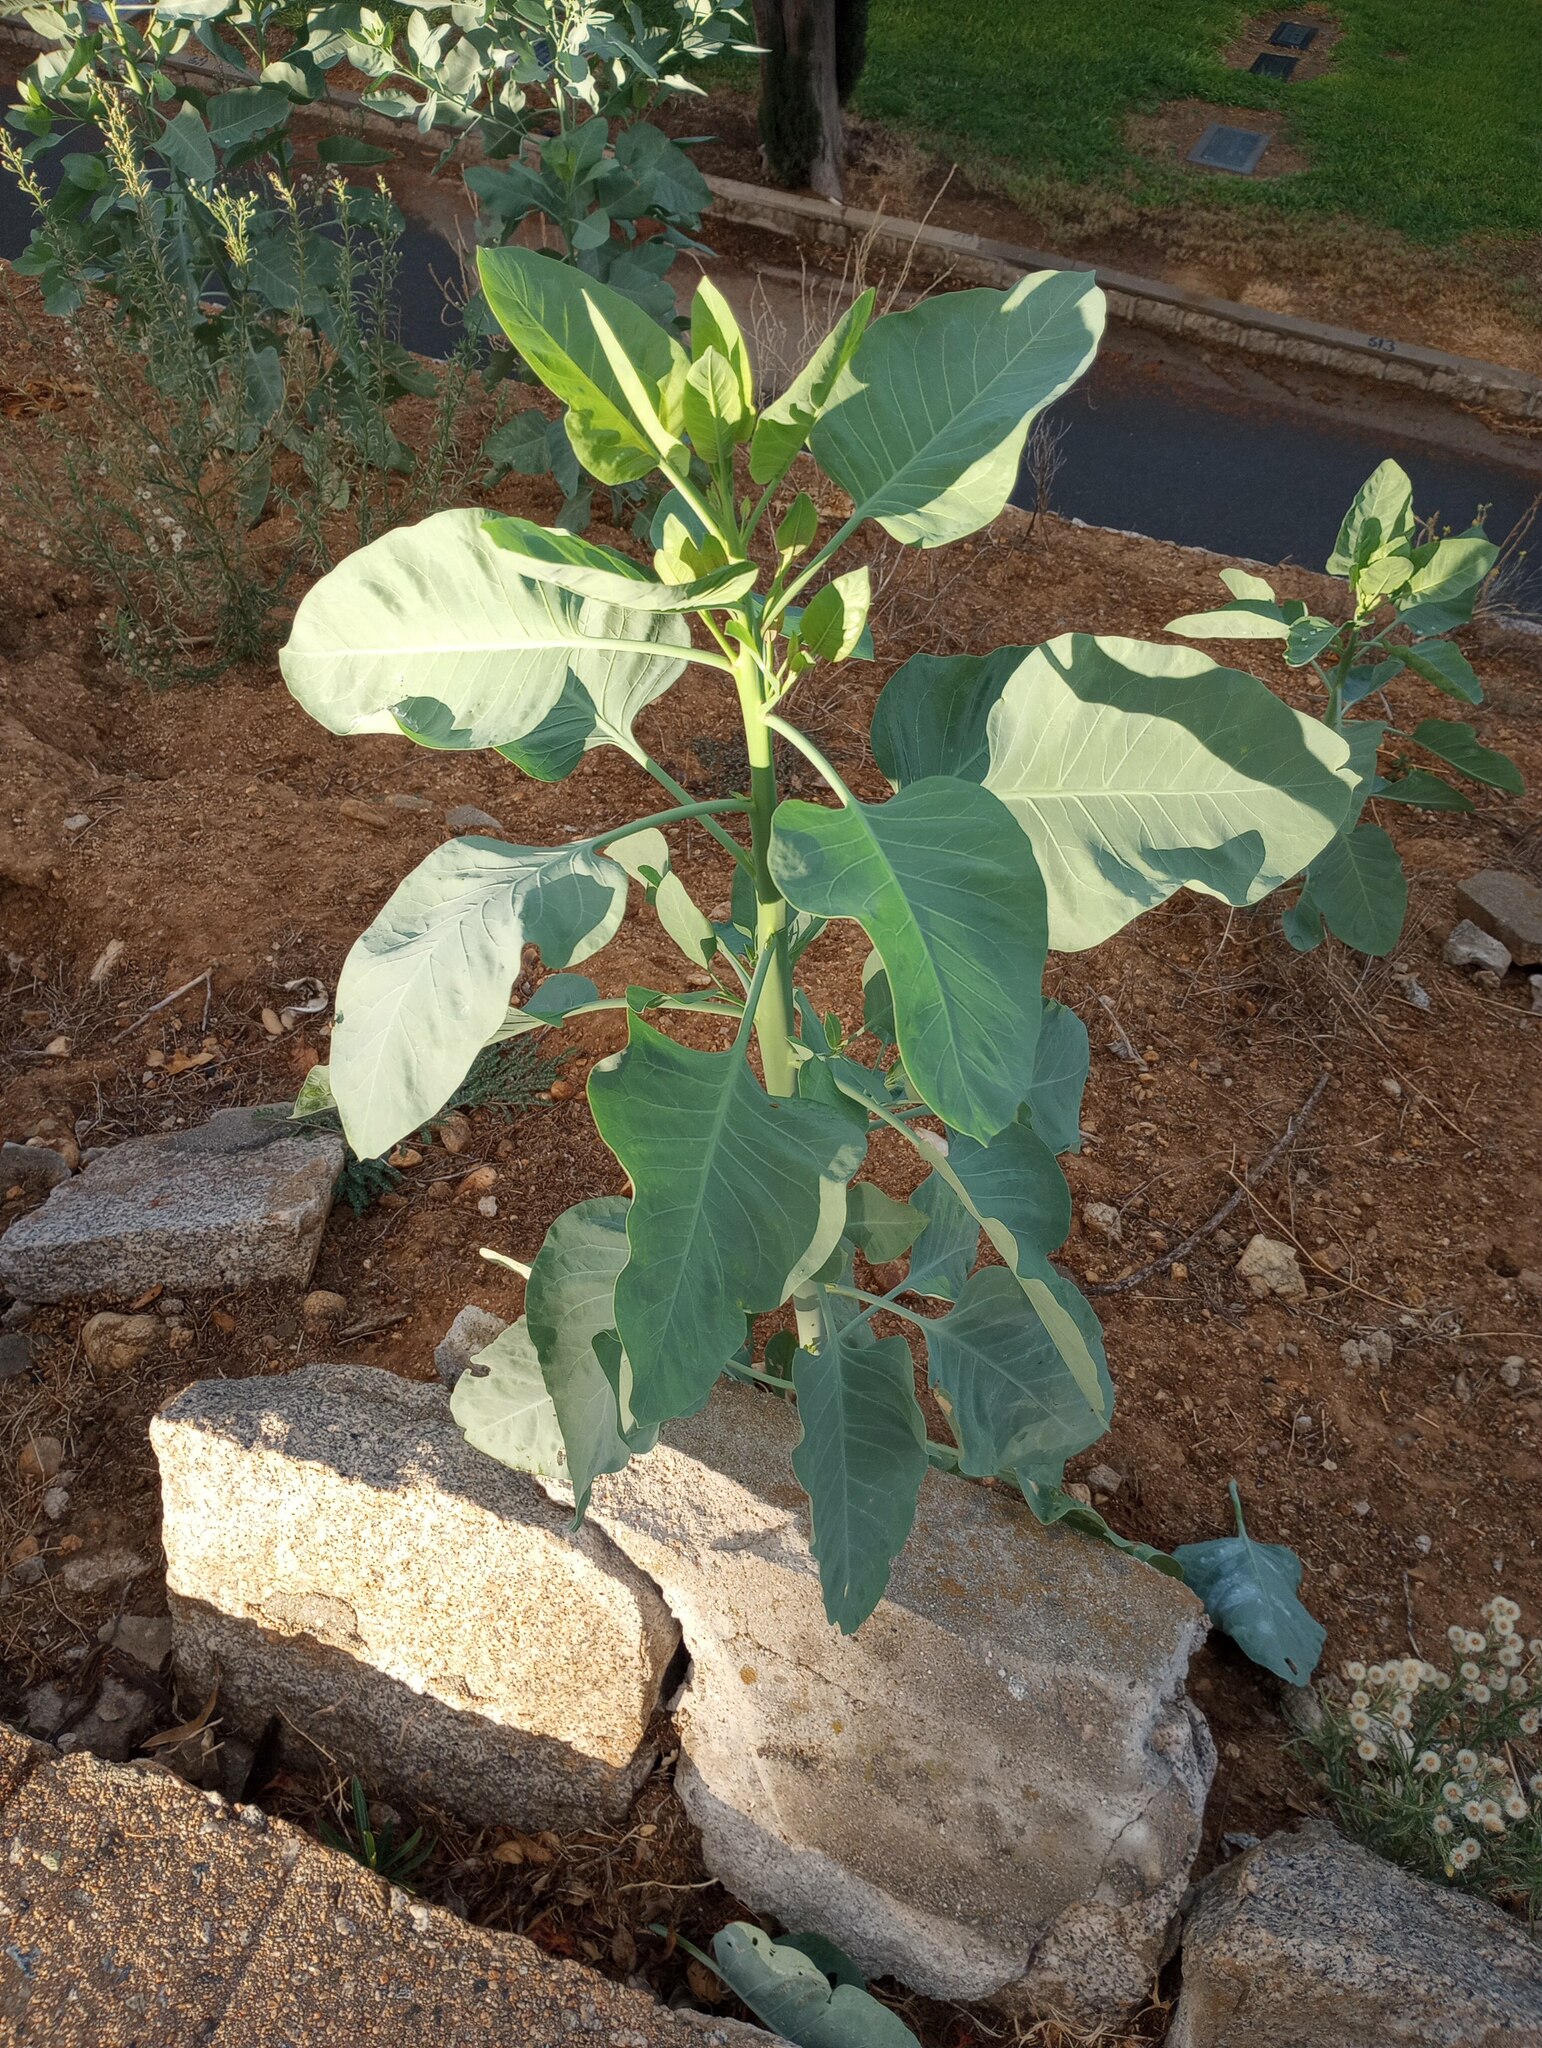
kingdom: Plantae
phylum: Tracheophyta
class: Magnoliopsida
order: Solanales
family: Solanaceae
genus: Nicotiana
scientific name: Nicotiana glauca
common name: Tree tobacco
